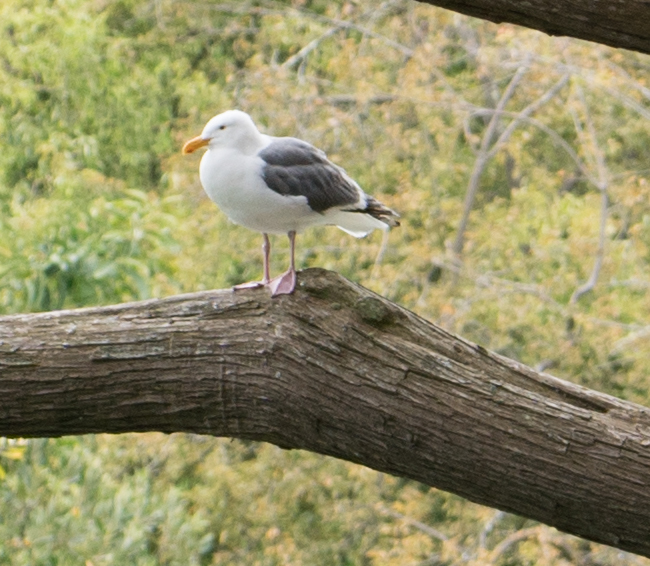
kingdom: Animalia
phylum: Chordata
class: Aves
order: Charadriiformes
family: Laridae
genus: Larus
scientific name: Larus occidentalis
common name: Western gull
